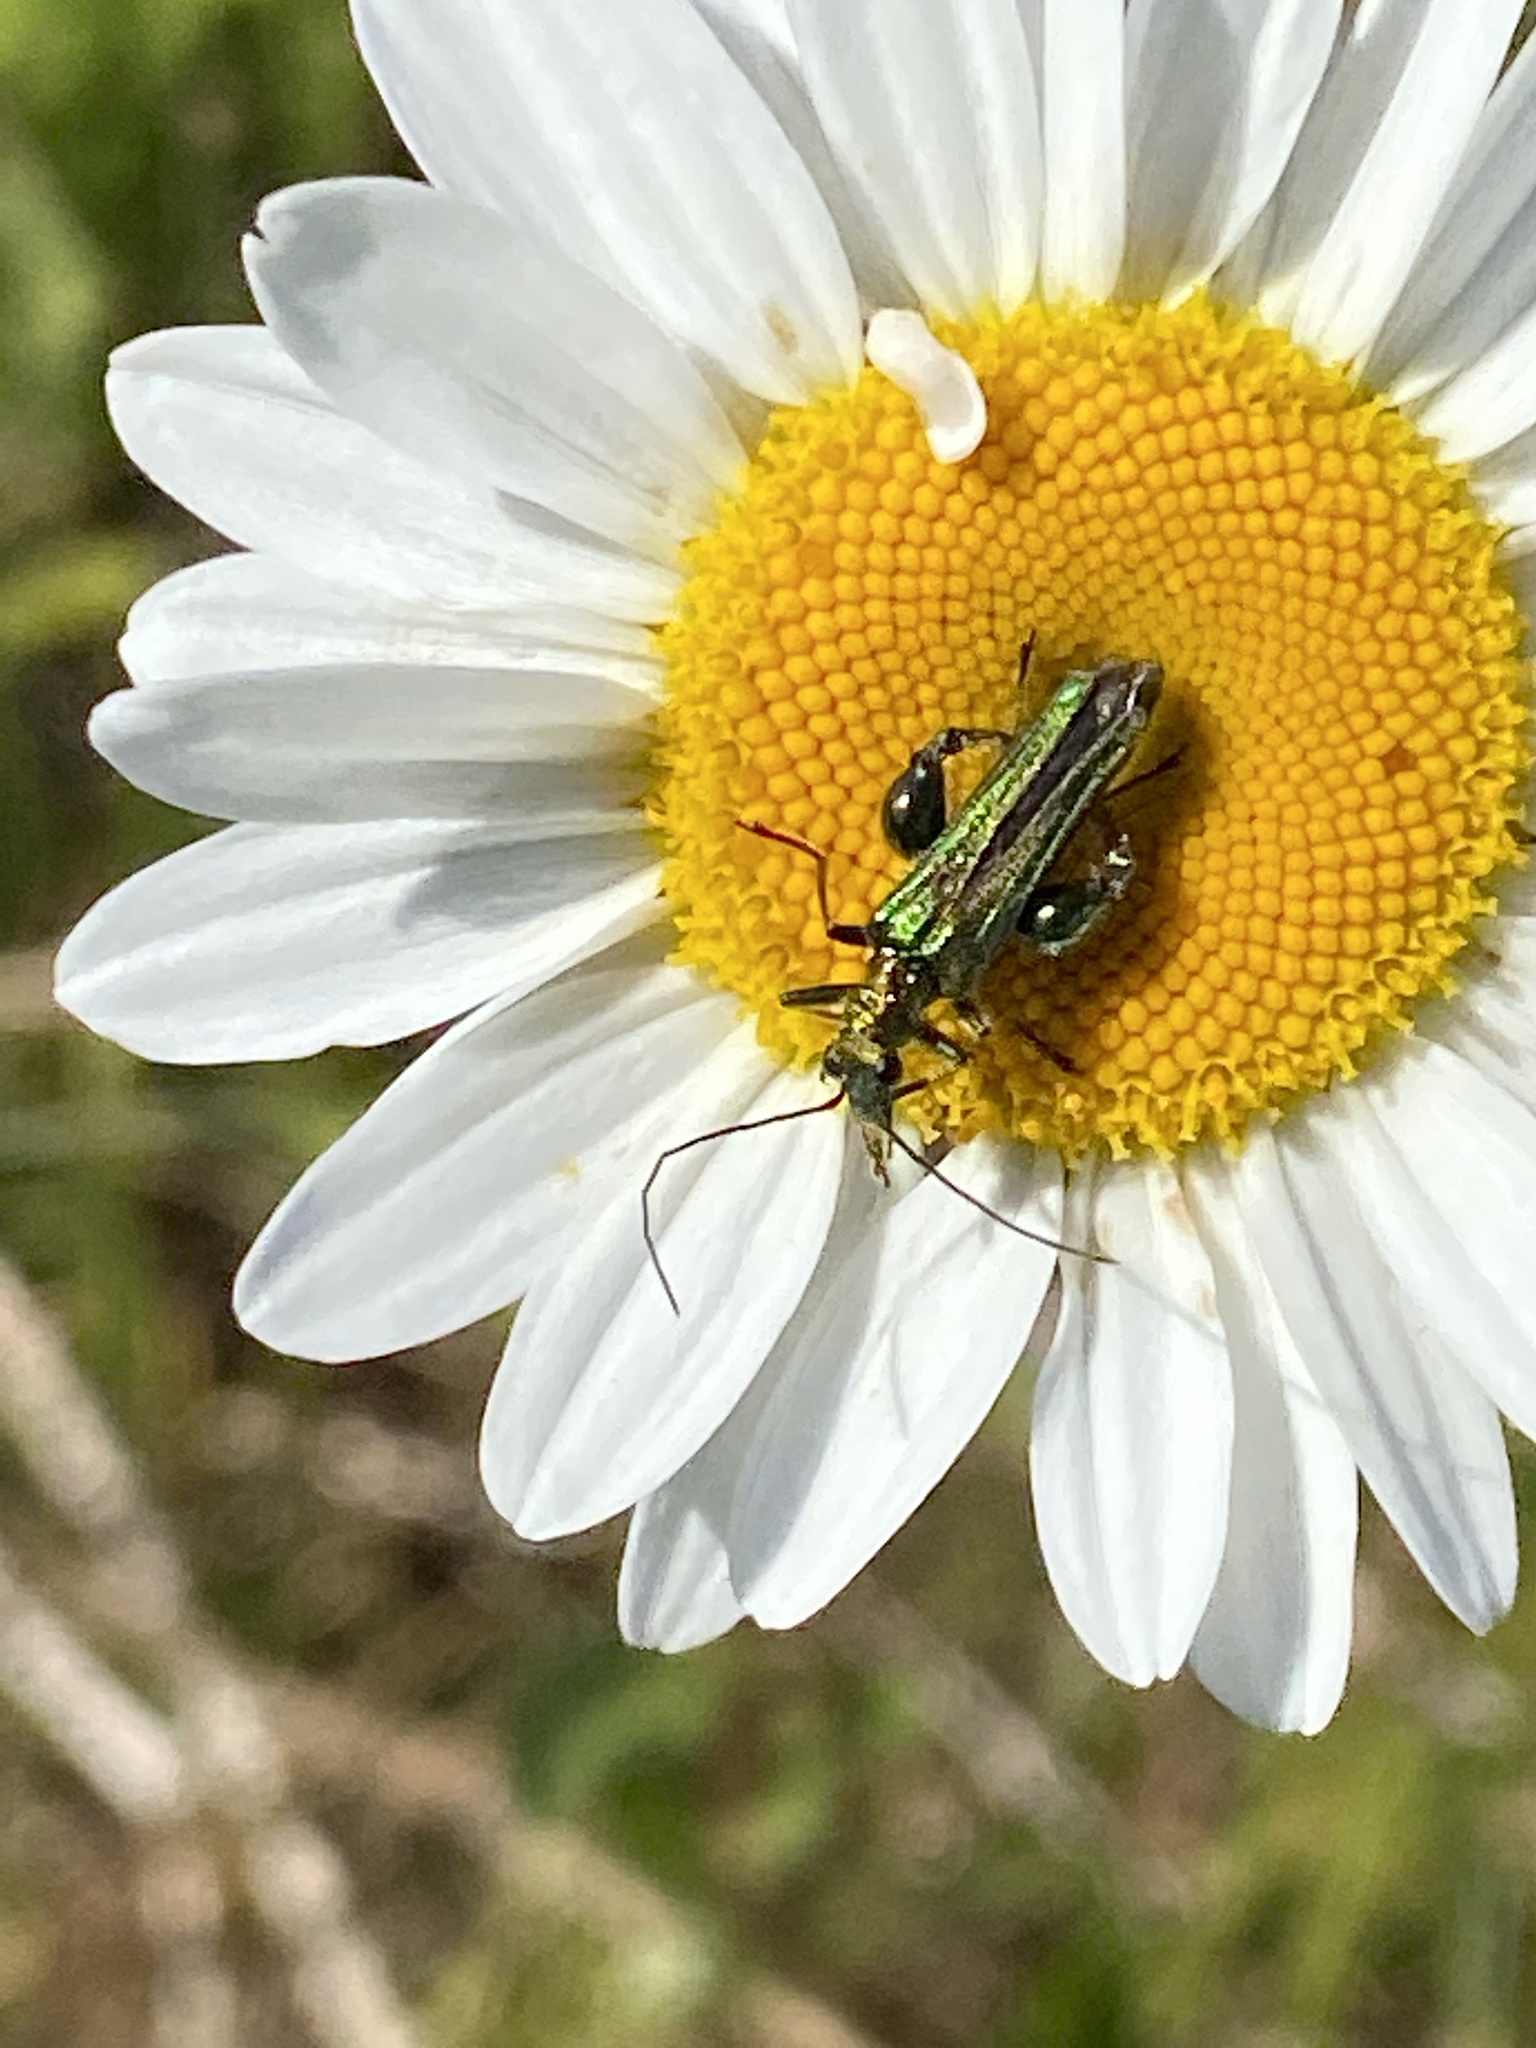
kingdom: Animalia
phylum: Arthropoda
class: Insecta
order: Coleoptera
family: Oedemeridae
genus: Oedemera
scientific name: Oedemera nobilis
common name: Swollen-thighed beetle
